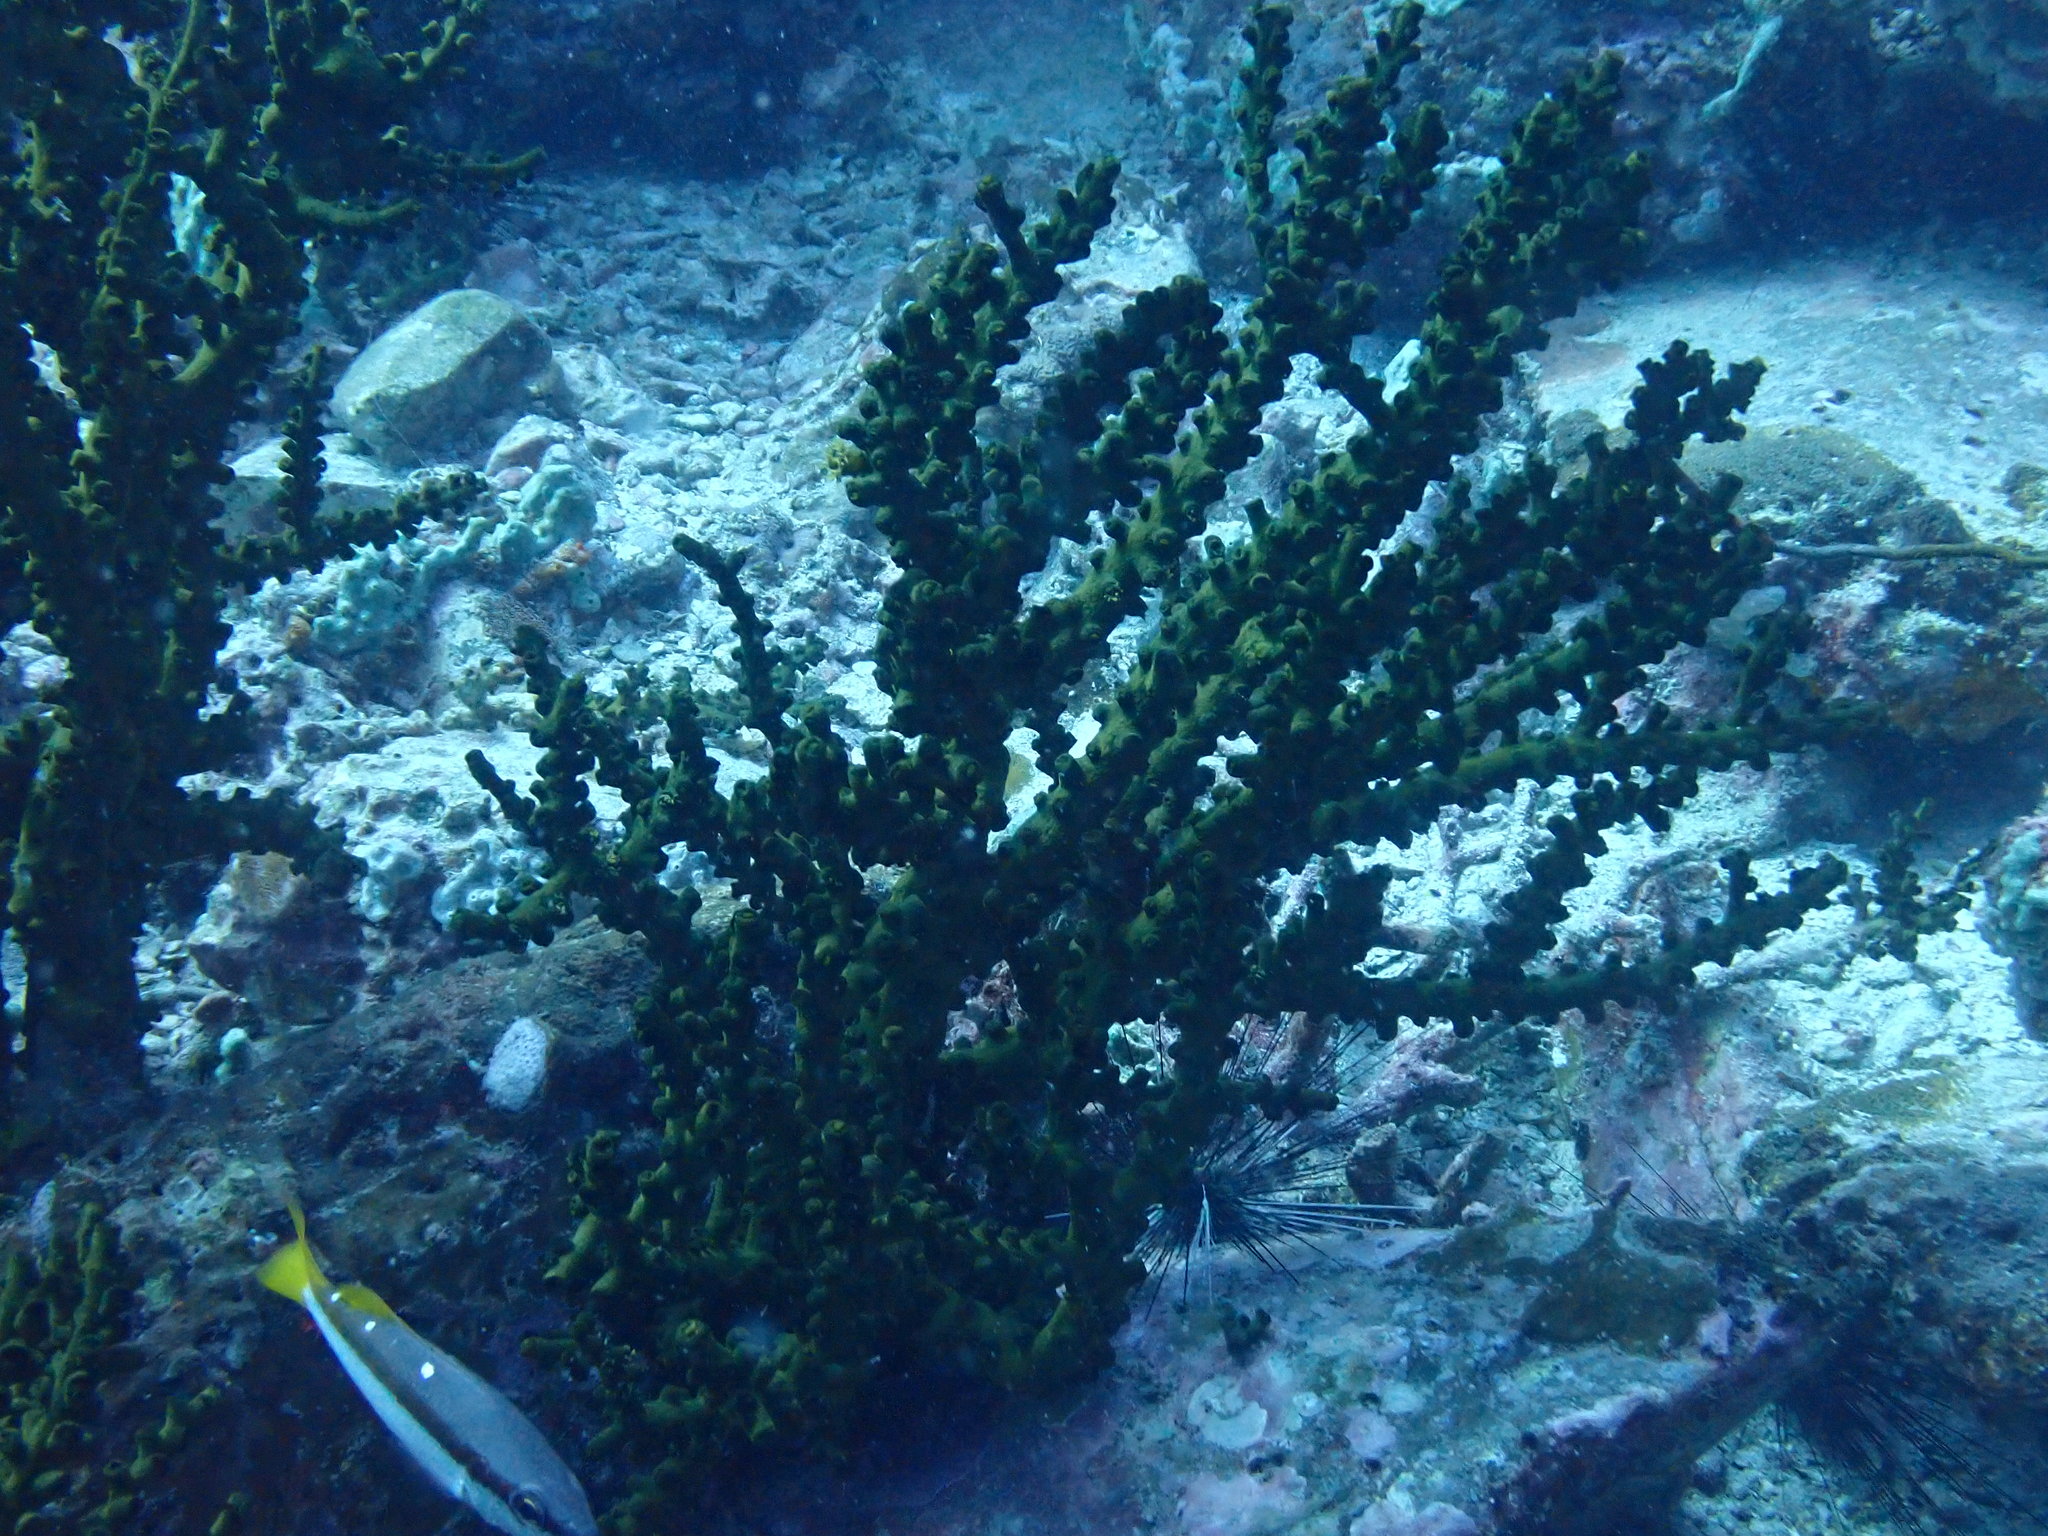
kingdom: Animalia
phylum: Cnidaria
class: Anthozoa
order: Scleractinia
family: Dendrophylliidae
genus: Tubastraea
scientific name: Tubastraea micranthus
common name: Black sun coral
